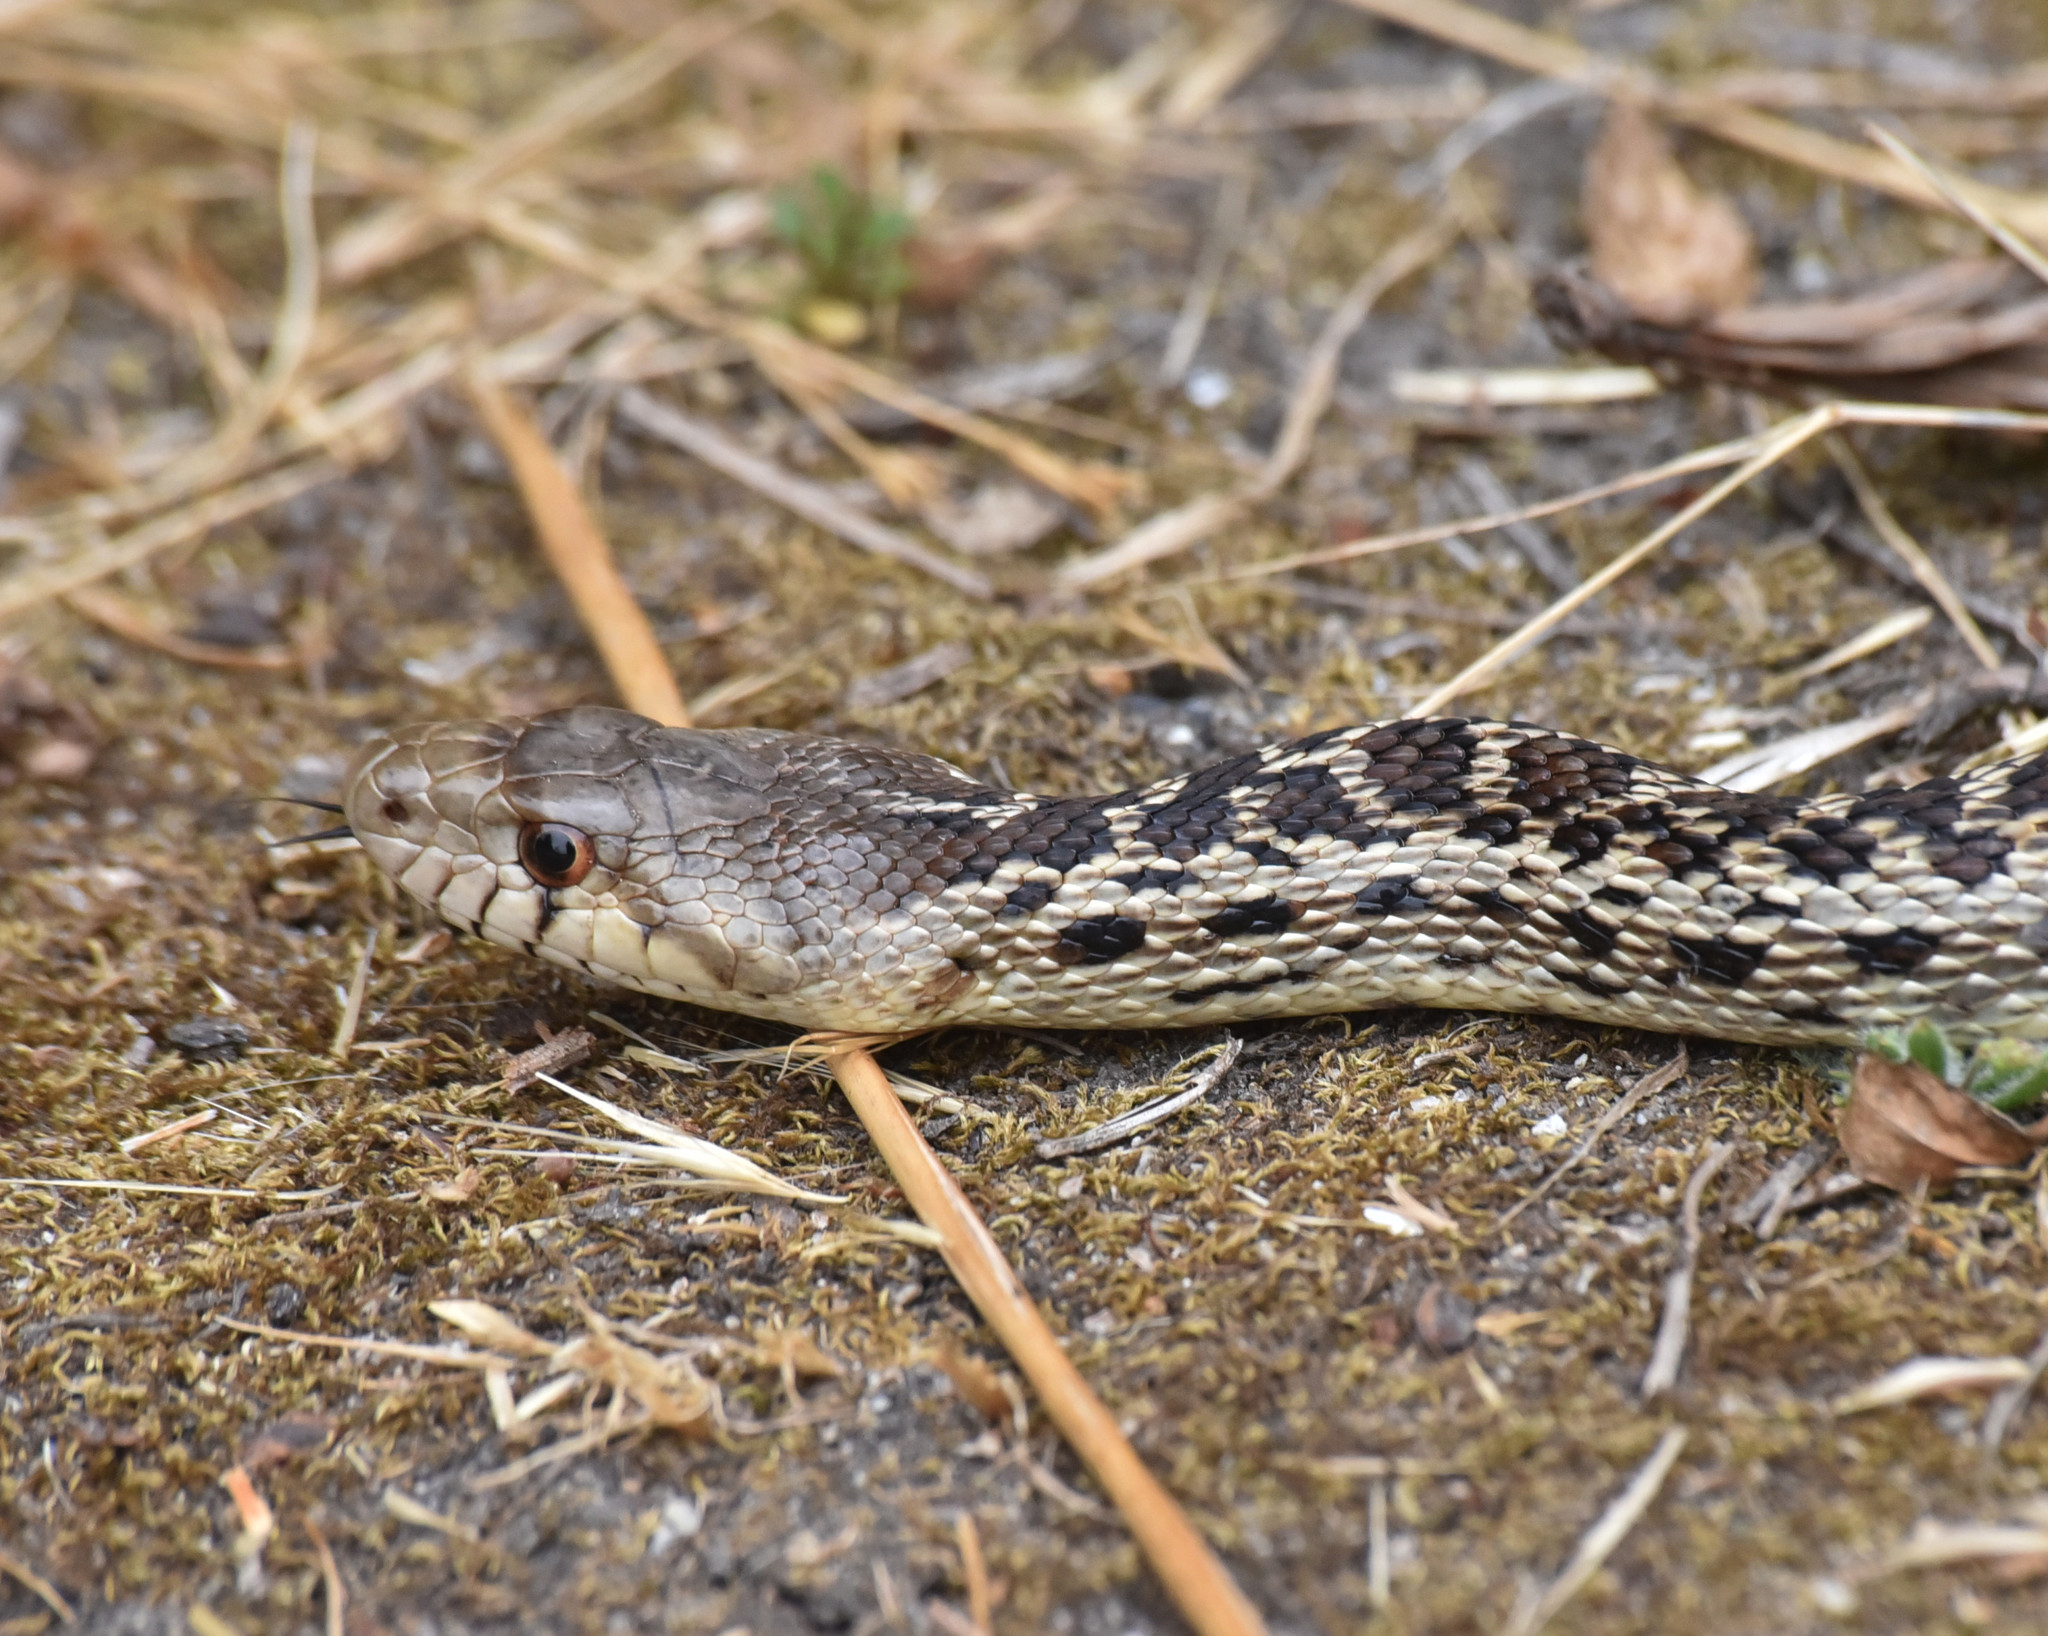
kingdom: Animalia
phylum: Chordata
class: Squamata
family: Colubridae
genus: Pituophis
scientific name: Pituophis catenifer
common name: Gopher snake
